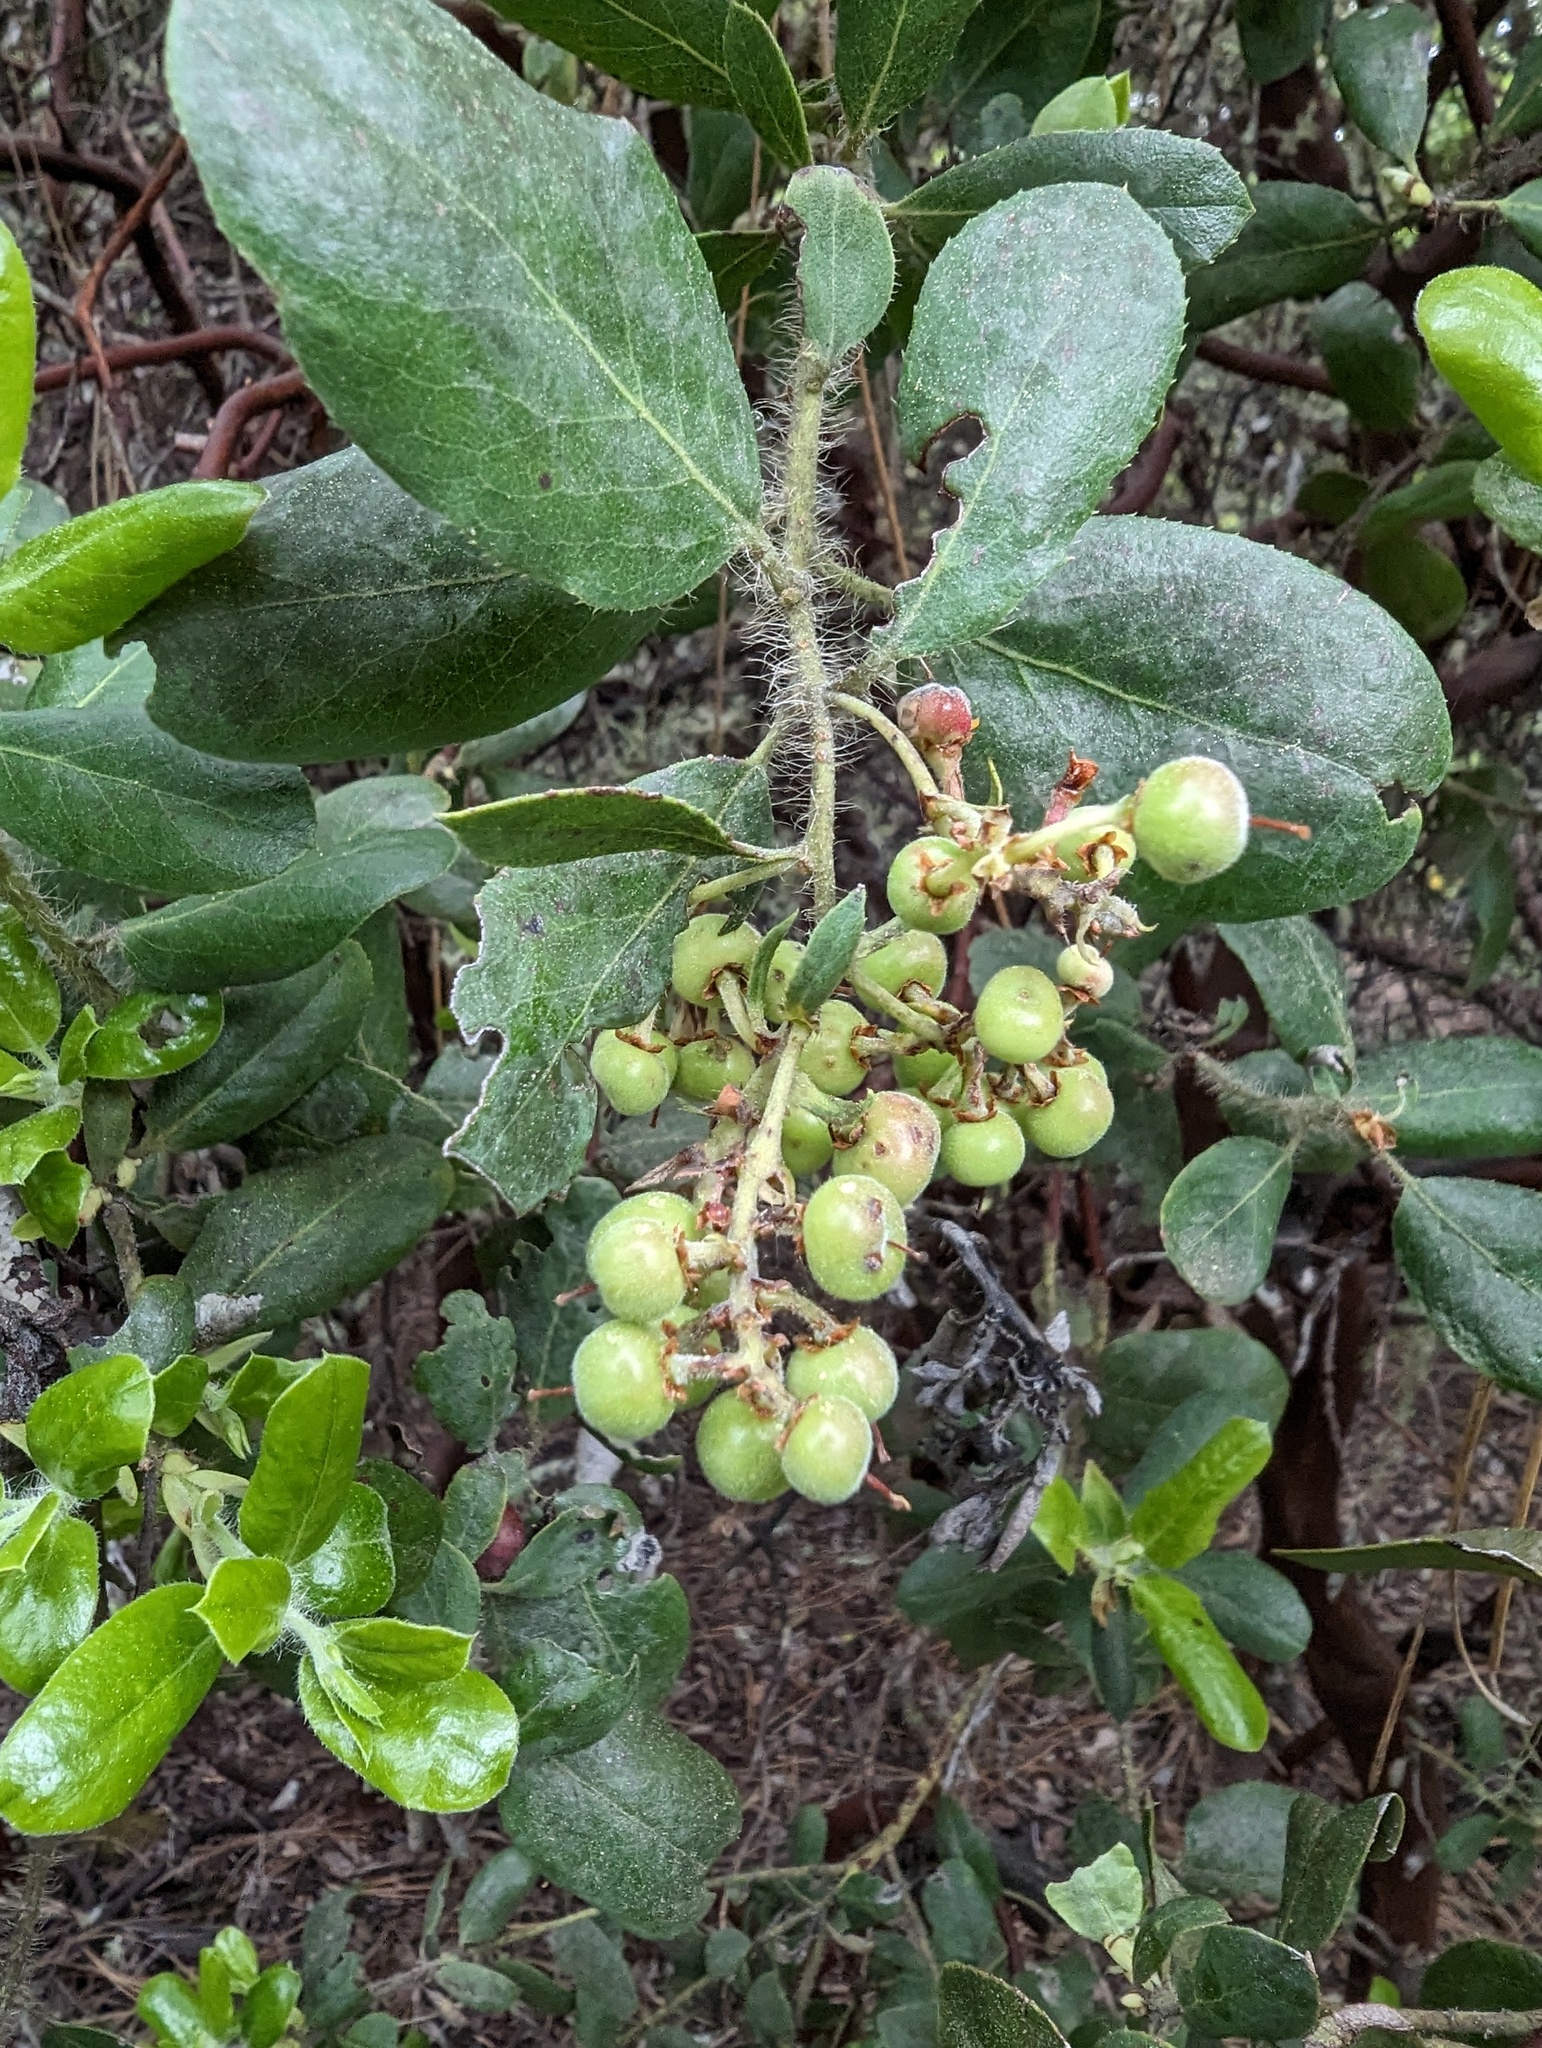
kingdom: Plantae
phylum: Tracheophyta
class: Magnoliopsida
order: Ericales
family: Ericaceae
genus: Arctostaphylos
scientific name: Arctostaphylos crustacea
